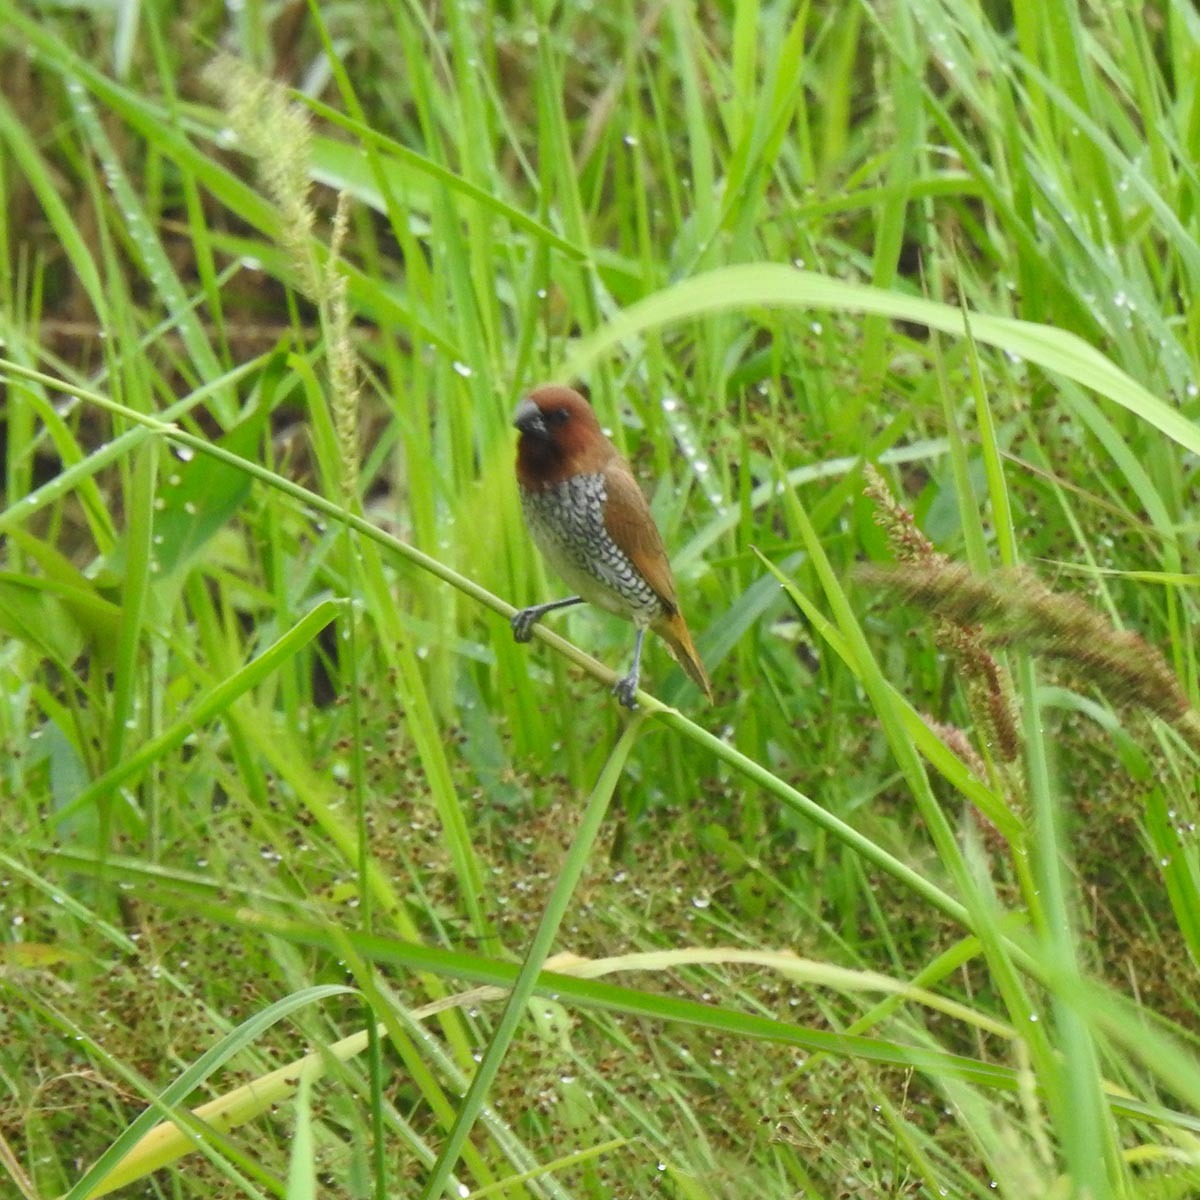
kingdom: Animalia
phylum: Chordata
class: Aves
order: Passeriformes
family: Estrildidae
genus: Lonchura
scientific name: Lonchura punctulata
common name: Scaly-breasted munia
